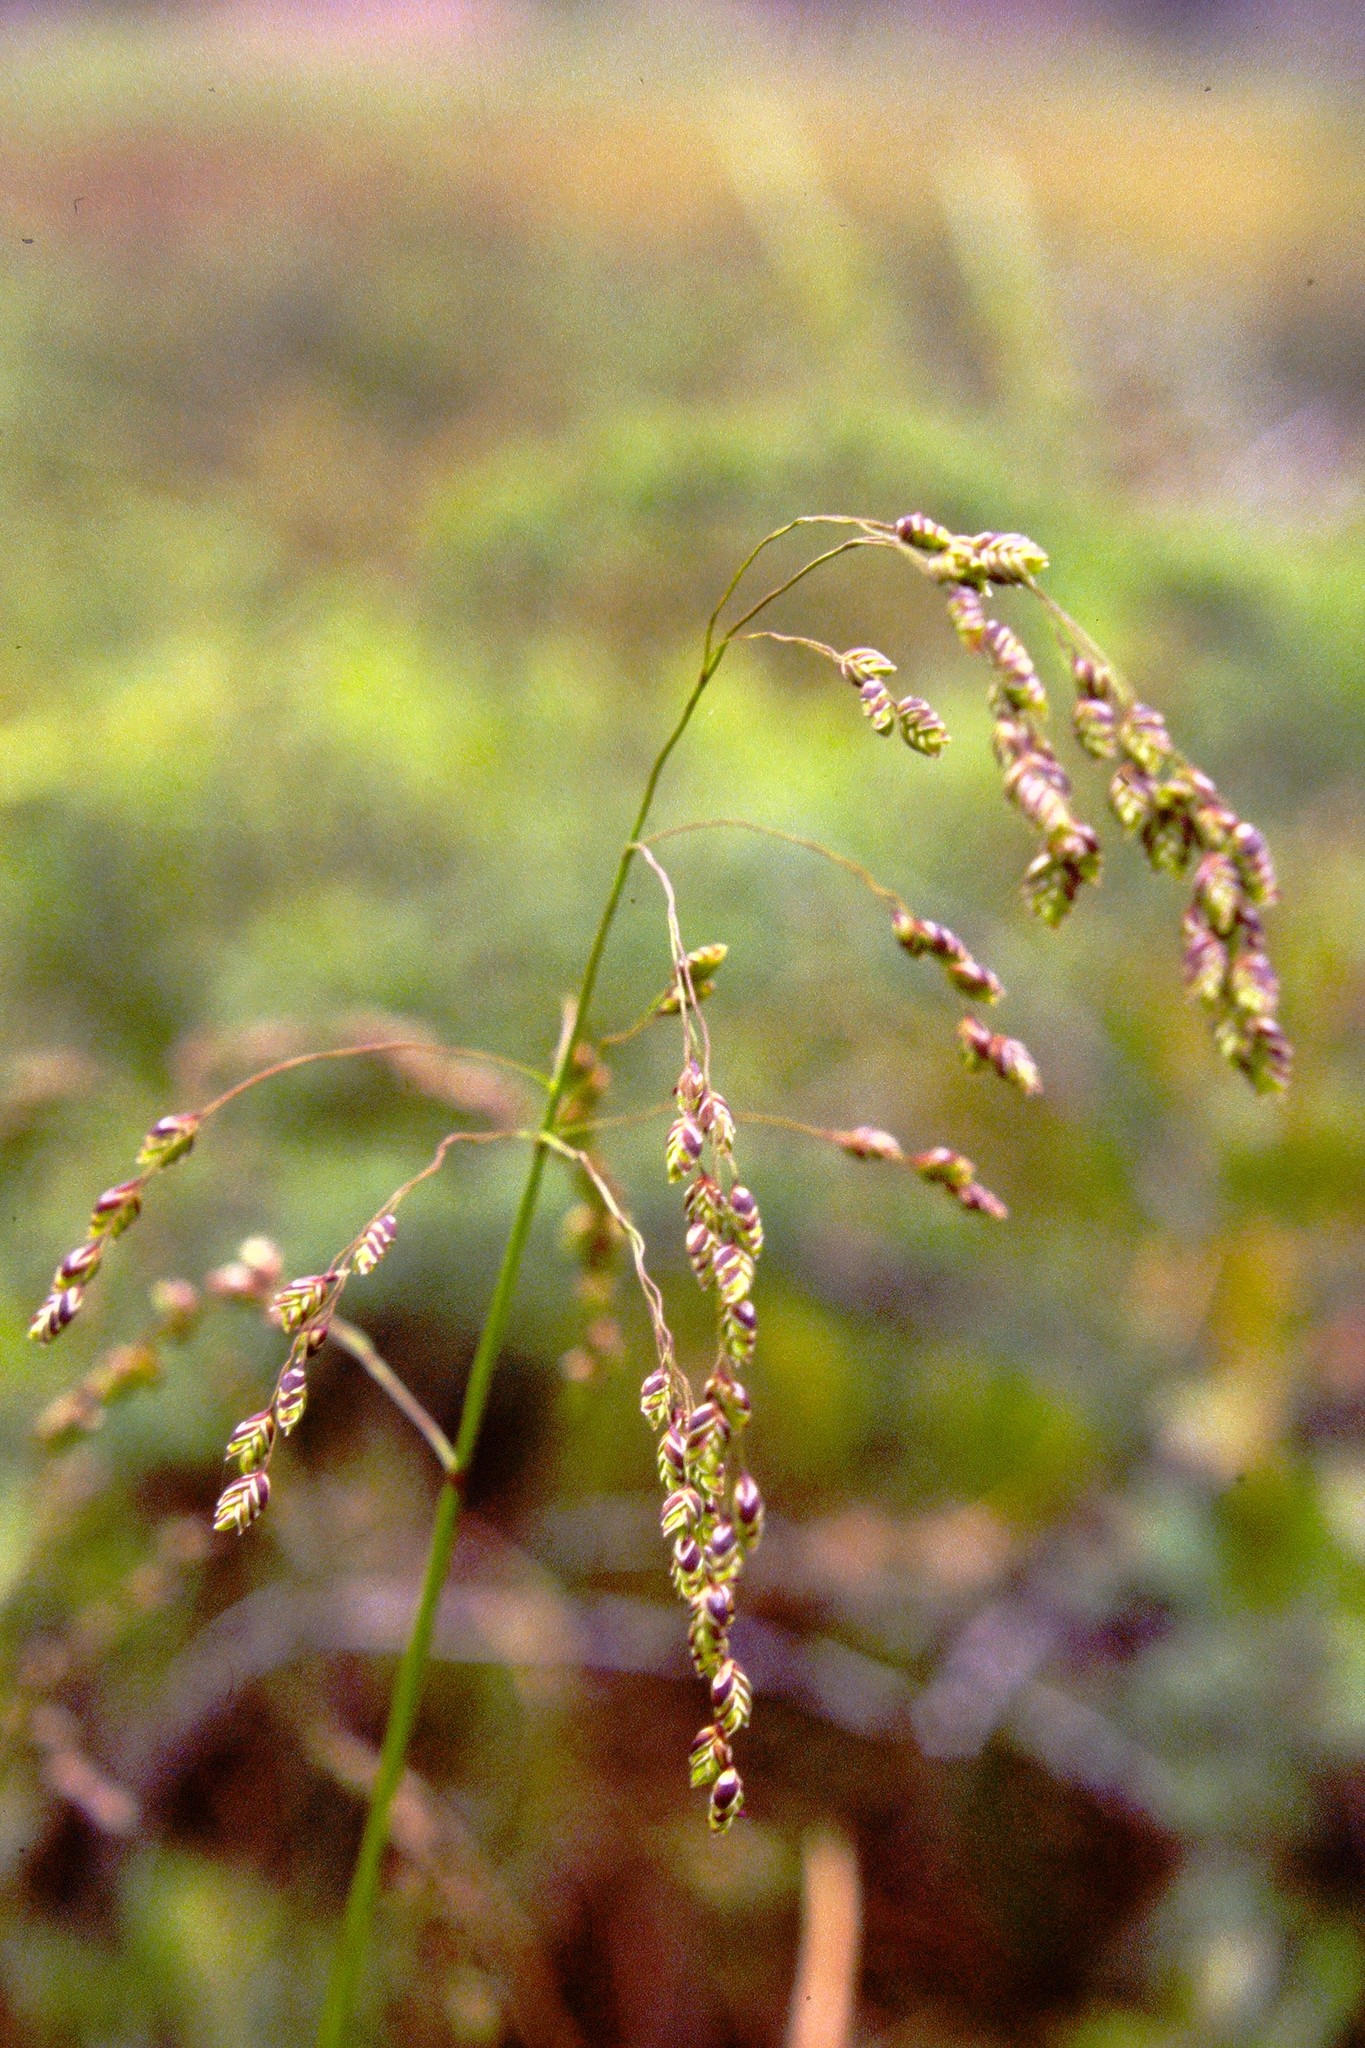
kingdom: Plantae
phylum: Tracheophyta
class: Liliopsida
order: Poales
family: Poaceae
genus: Glyceria
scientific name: Glyceria canadensis
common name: Canada mannagrass
